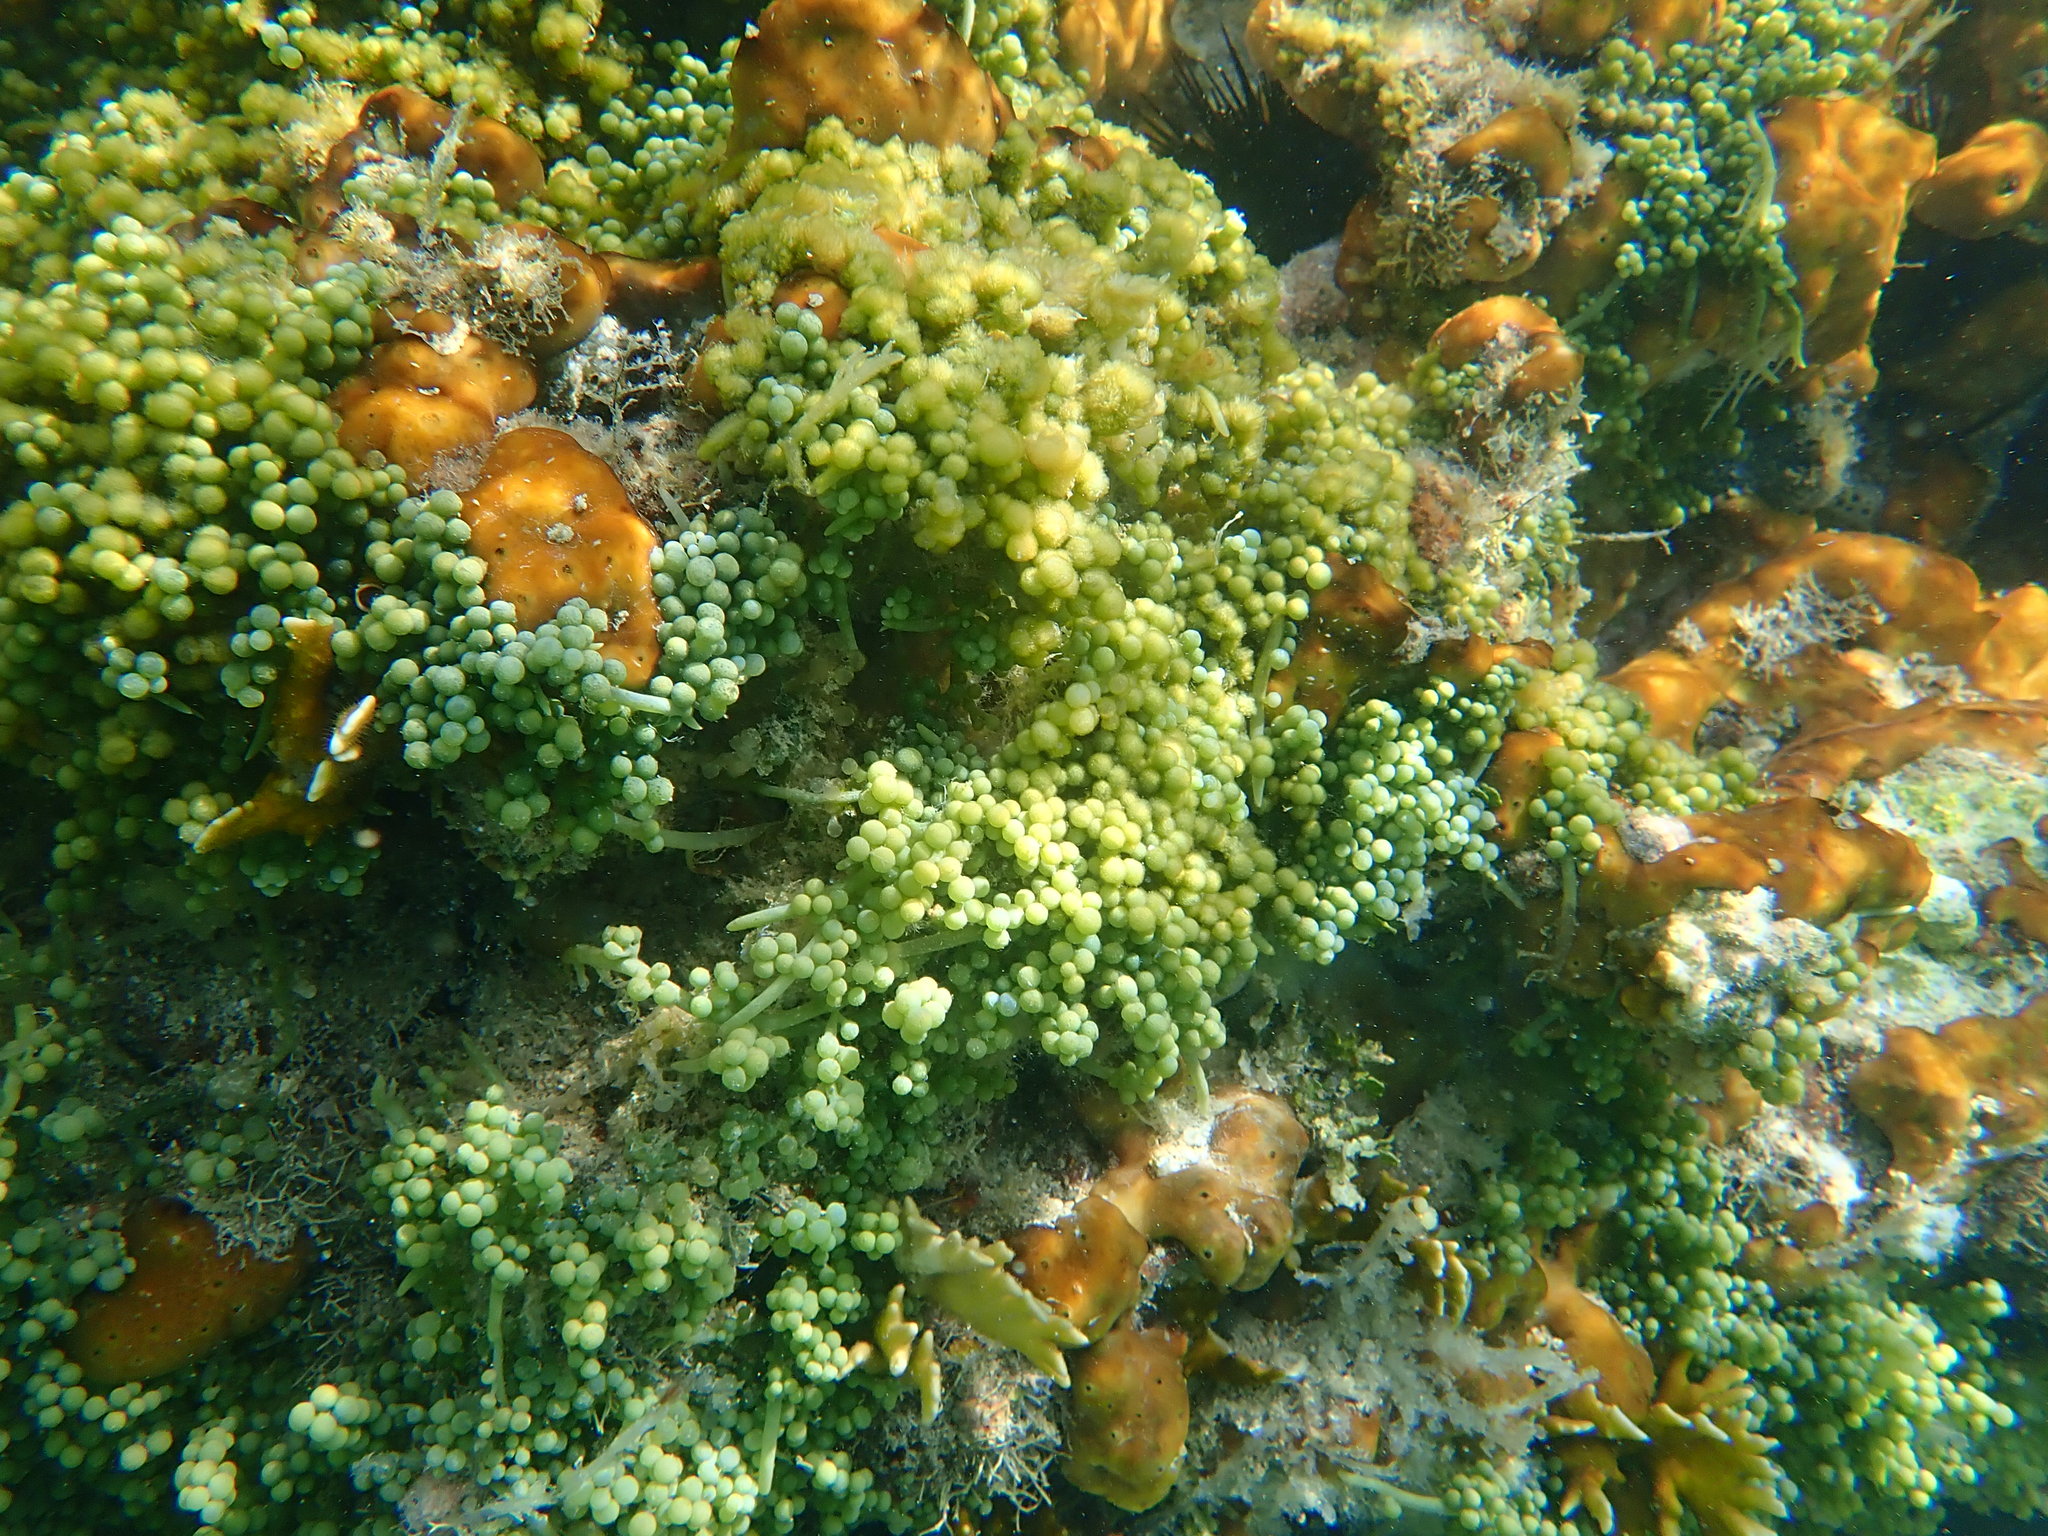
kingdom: Plantae
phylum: Chlorophyta
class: Ulvophyceae
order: Bryopsidales
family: Caulerpaceae
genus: Caulerpa
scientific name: Caulerpa racemosa
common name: Green grape algae
